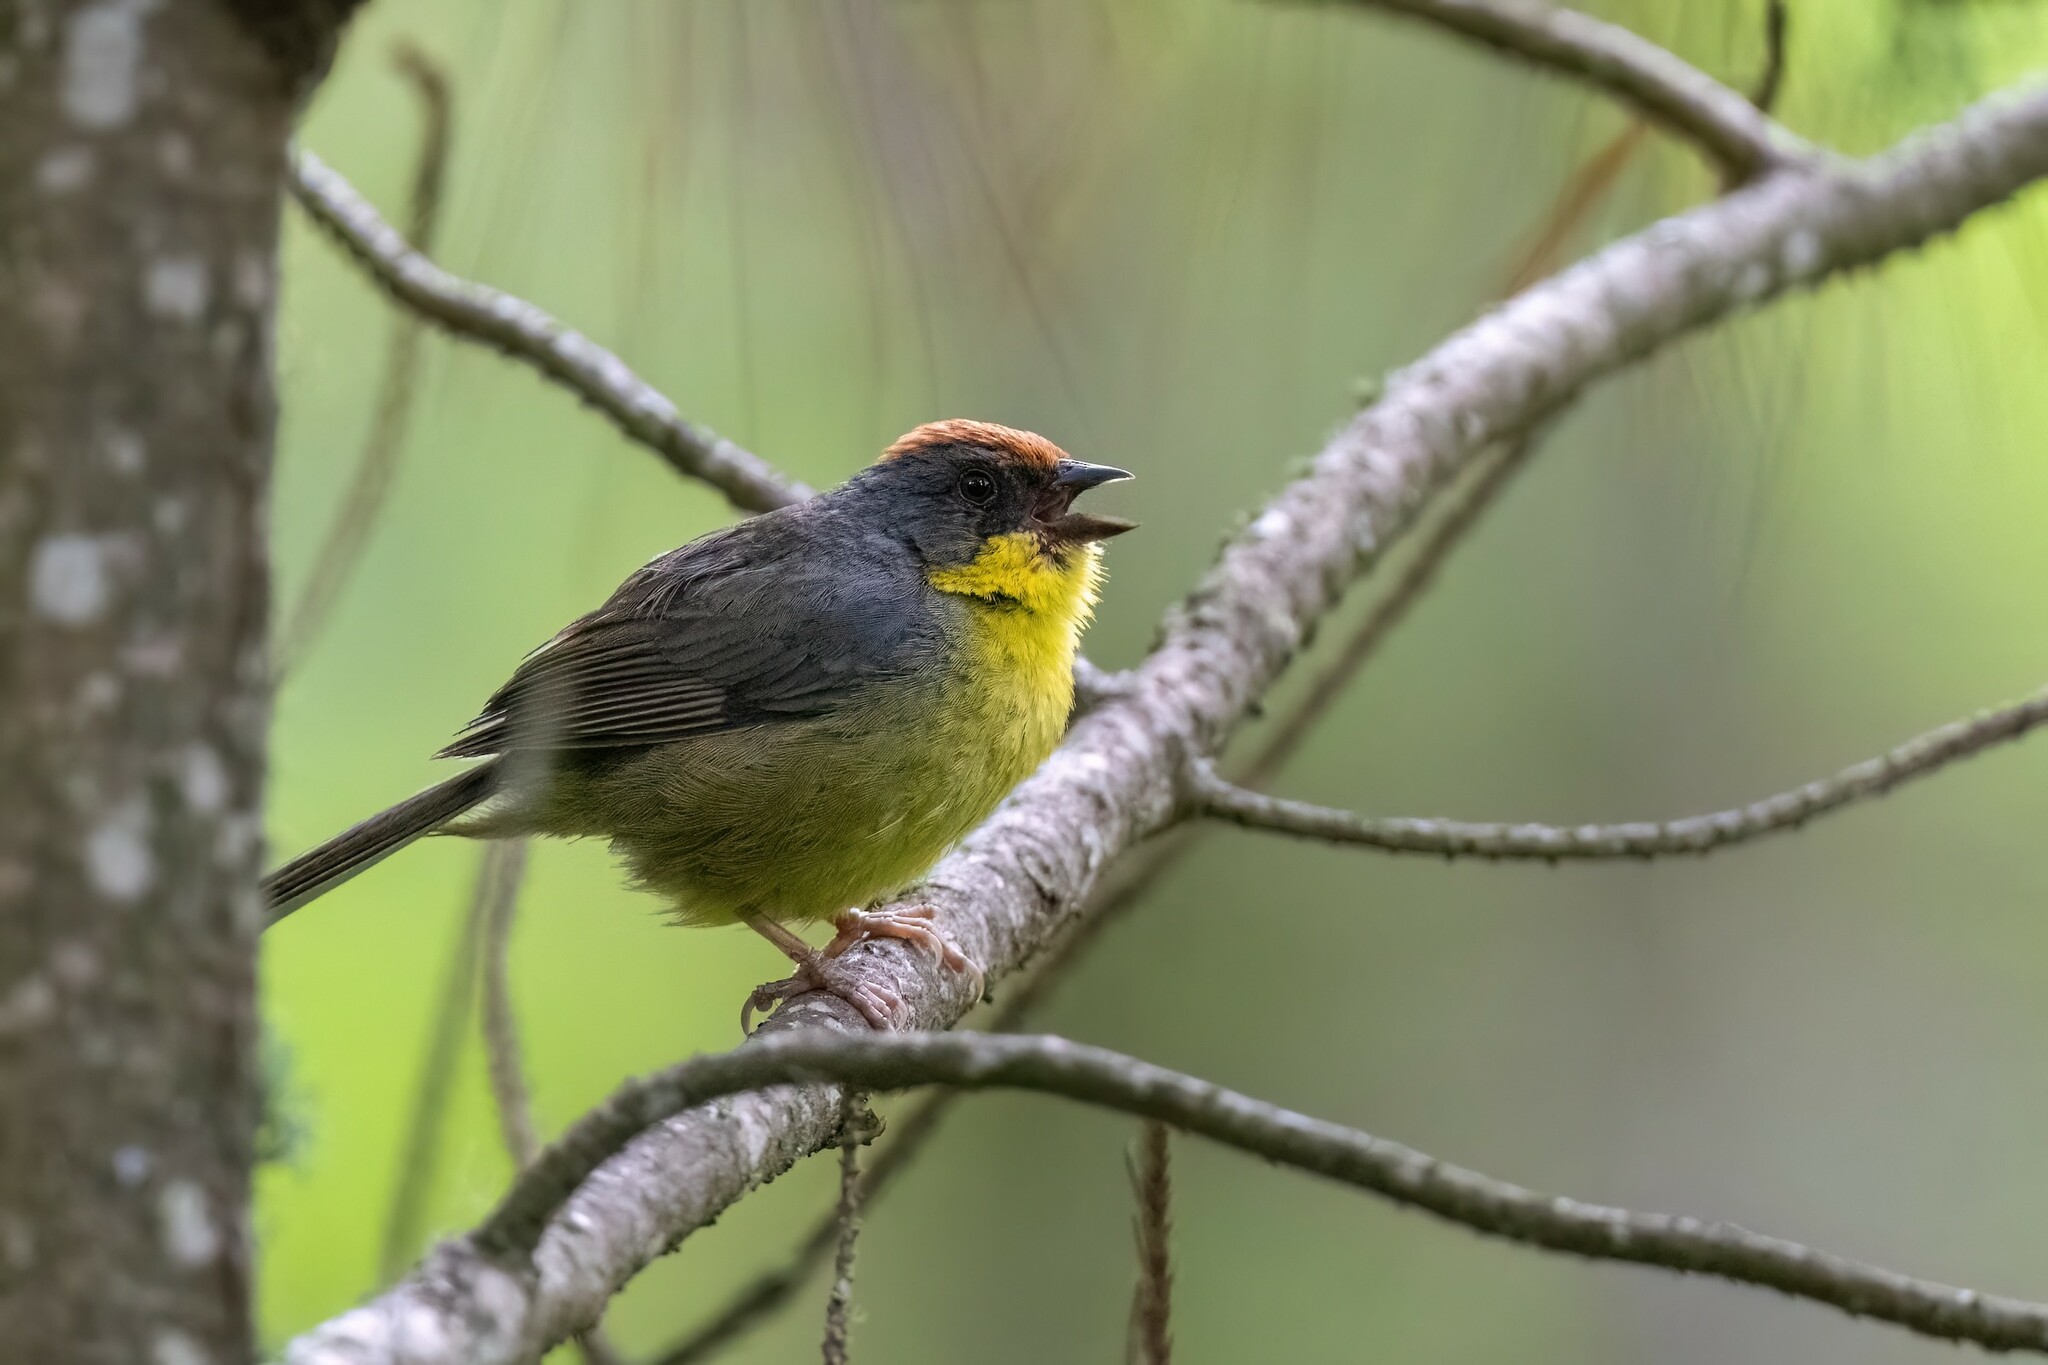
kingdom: Animalia
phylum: Chordata
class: Aves
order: Passeriformes
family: Passerellidae
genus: Atlapetes
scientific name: Atlapetes pileatus
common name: Rufous-capped brush-finch
